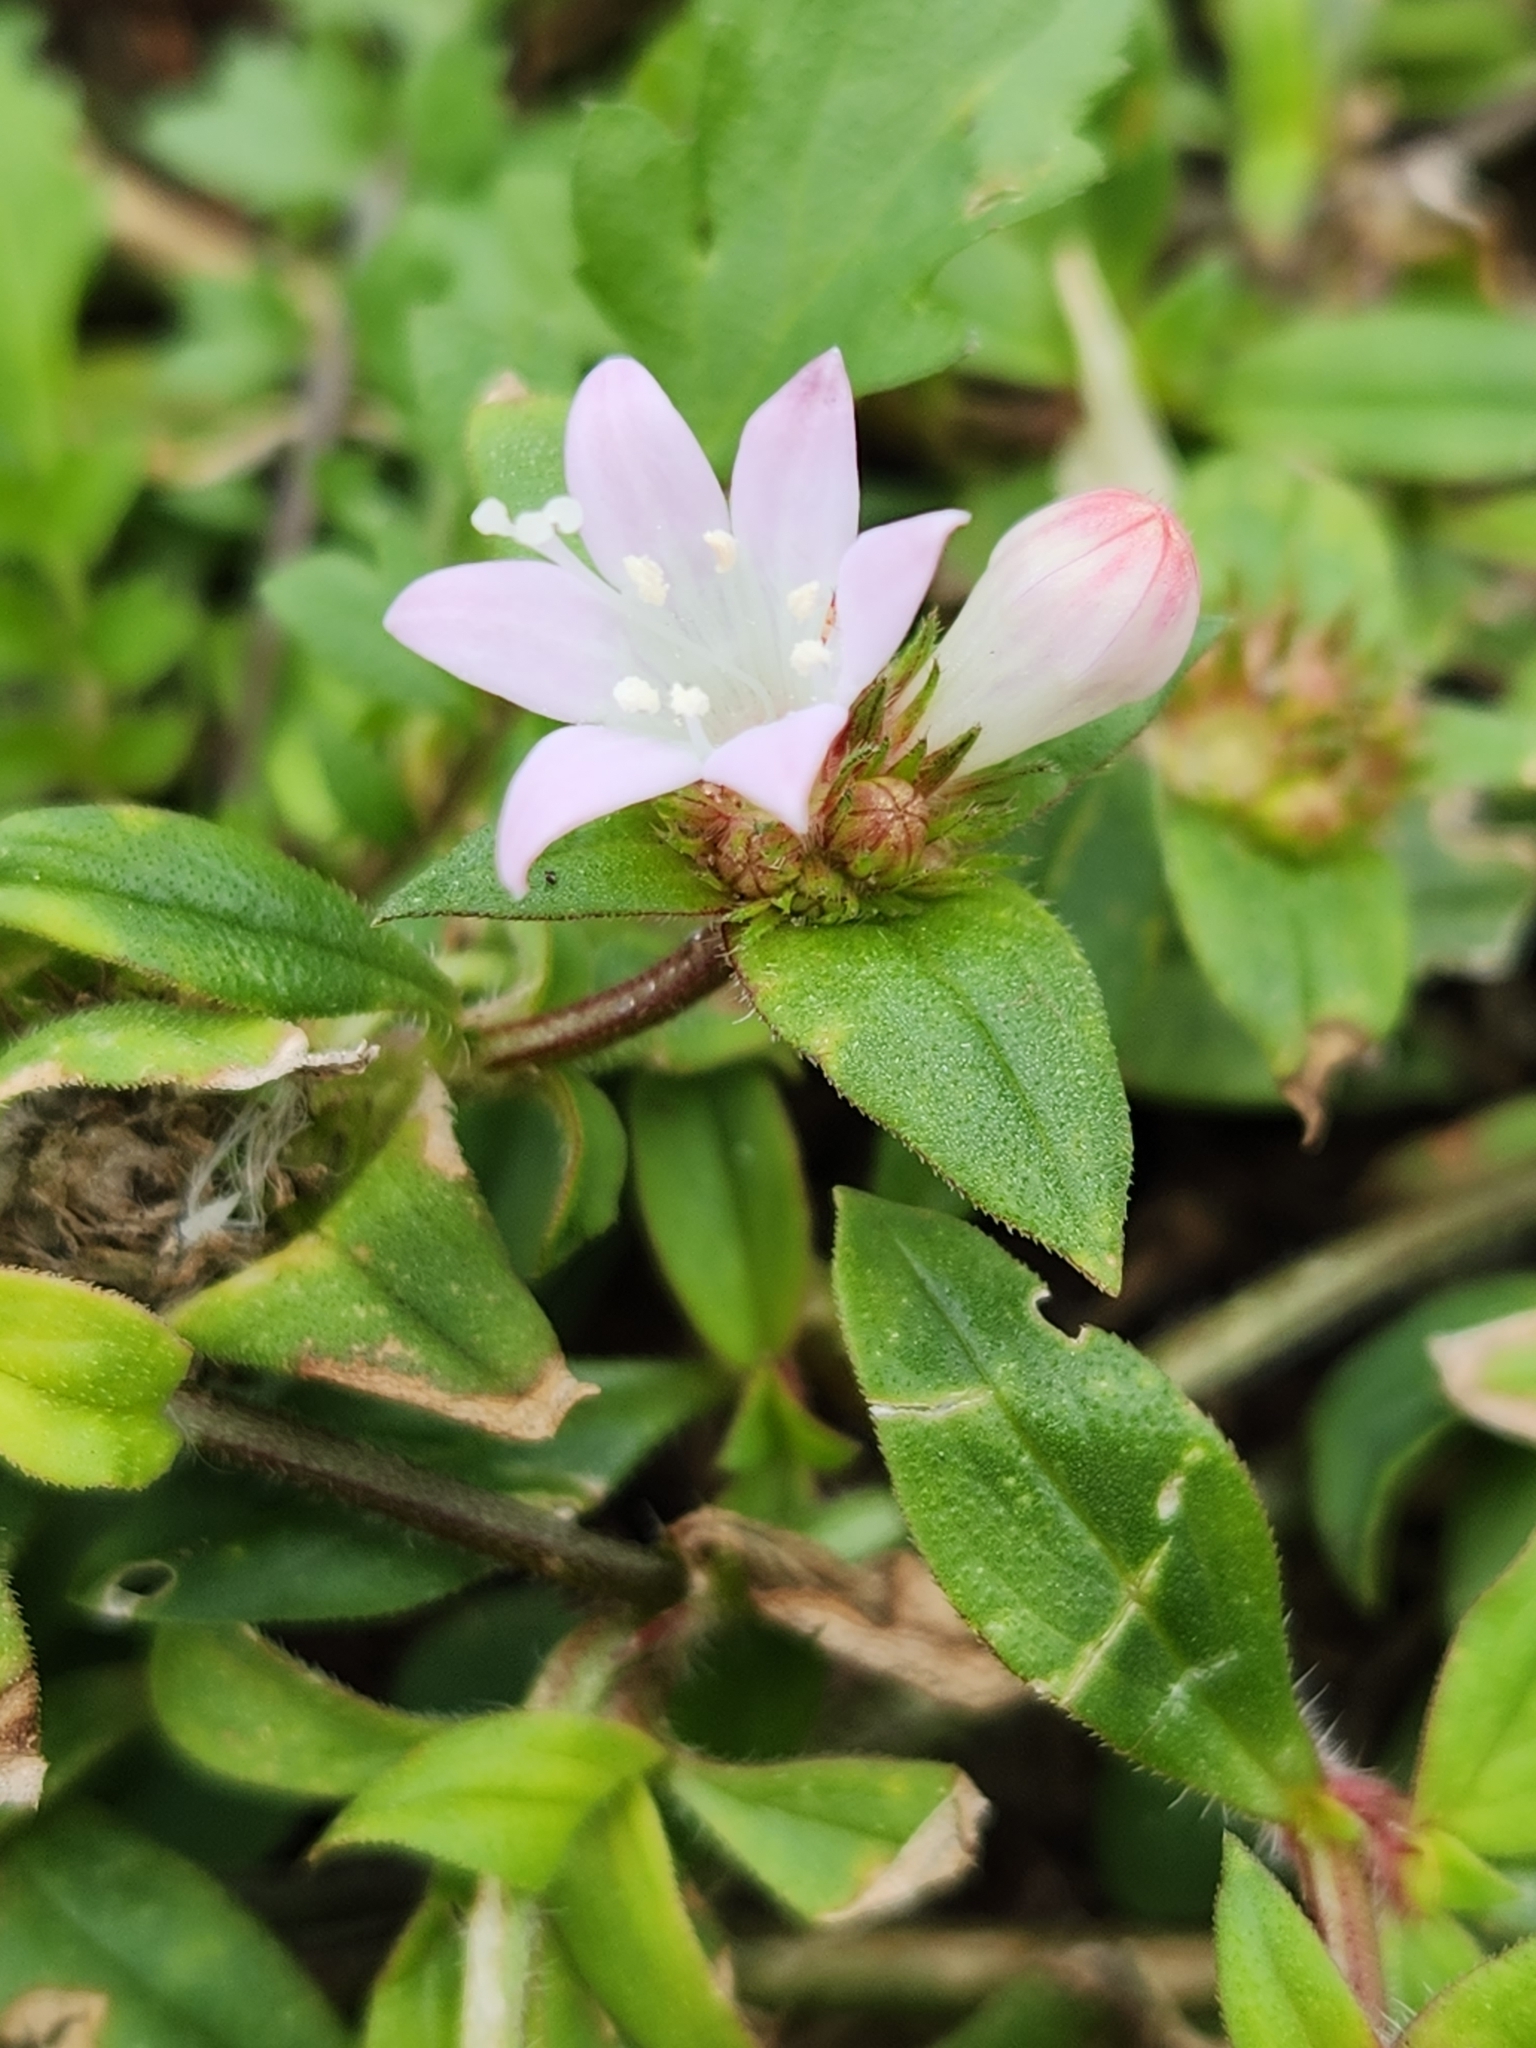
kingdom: Plantae
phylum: Tracheophyta
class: Magnoliopsida
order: Gentianales
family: Rubiaceae
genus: Richardia
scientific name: Richardia grandiflora
